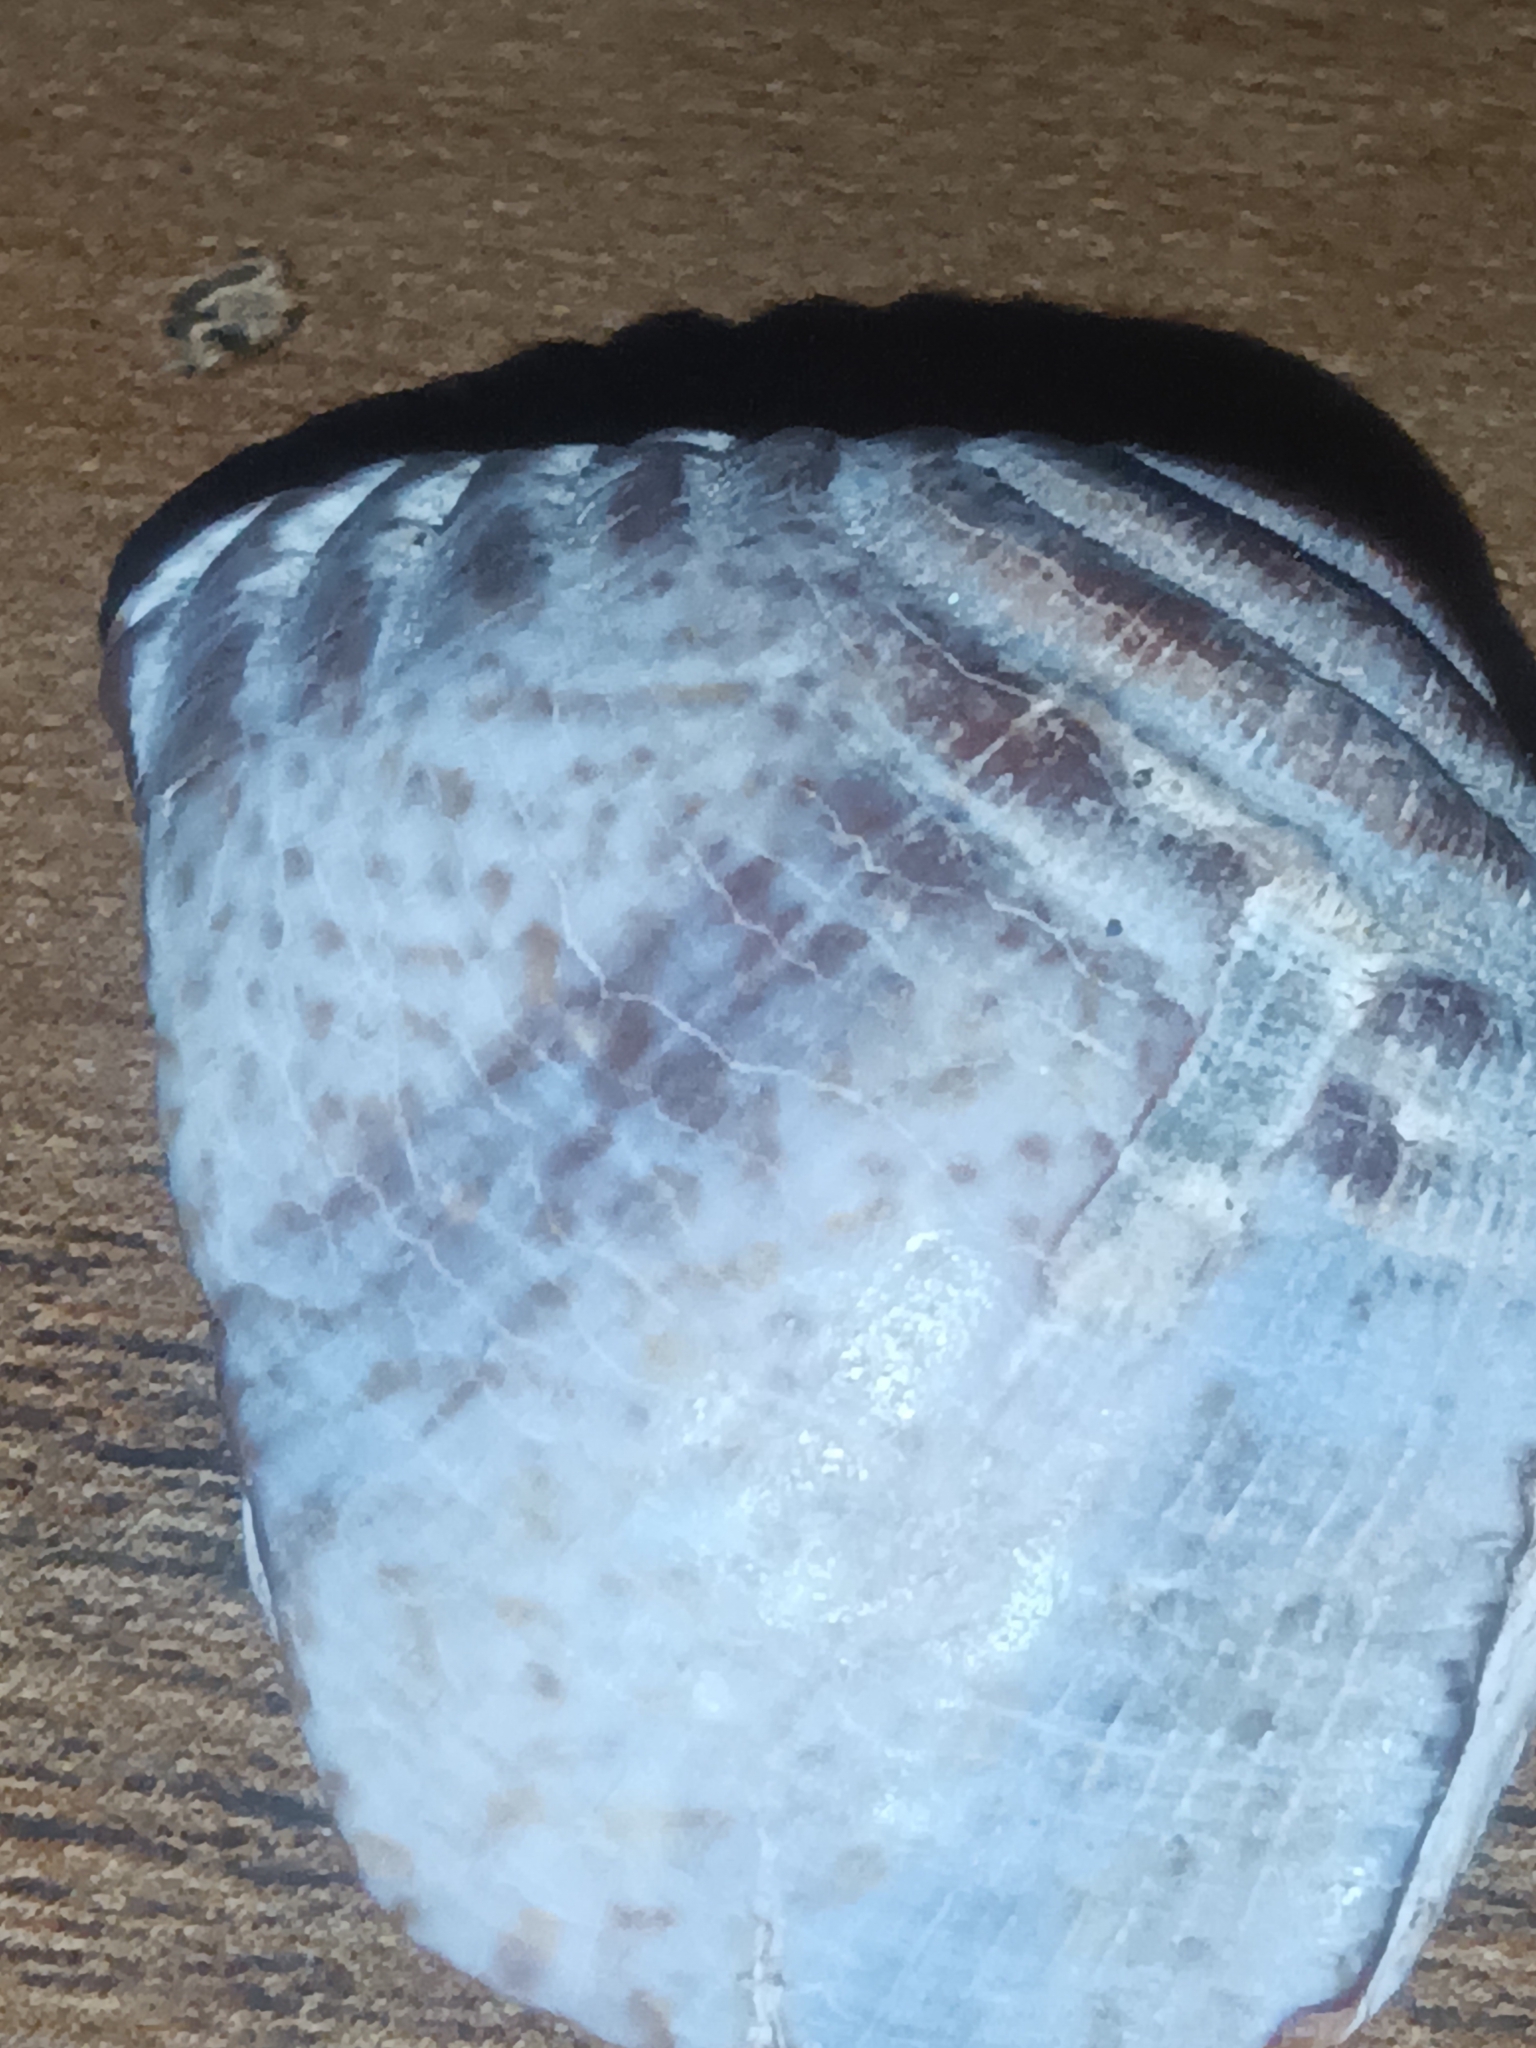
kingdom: Animalia
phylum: Mollusca
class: Bivalvia
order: Venerida
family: Veneridae
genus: Iliochione
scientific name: Iliochione subrugosa
